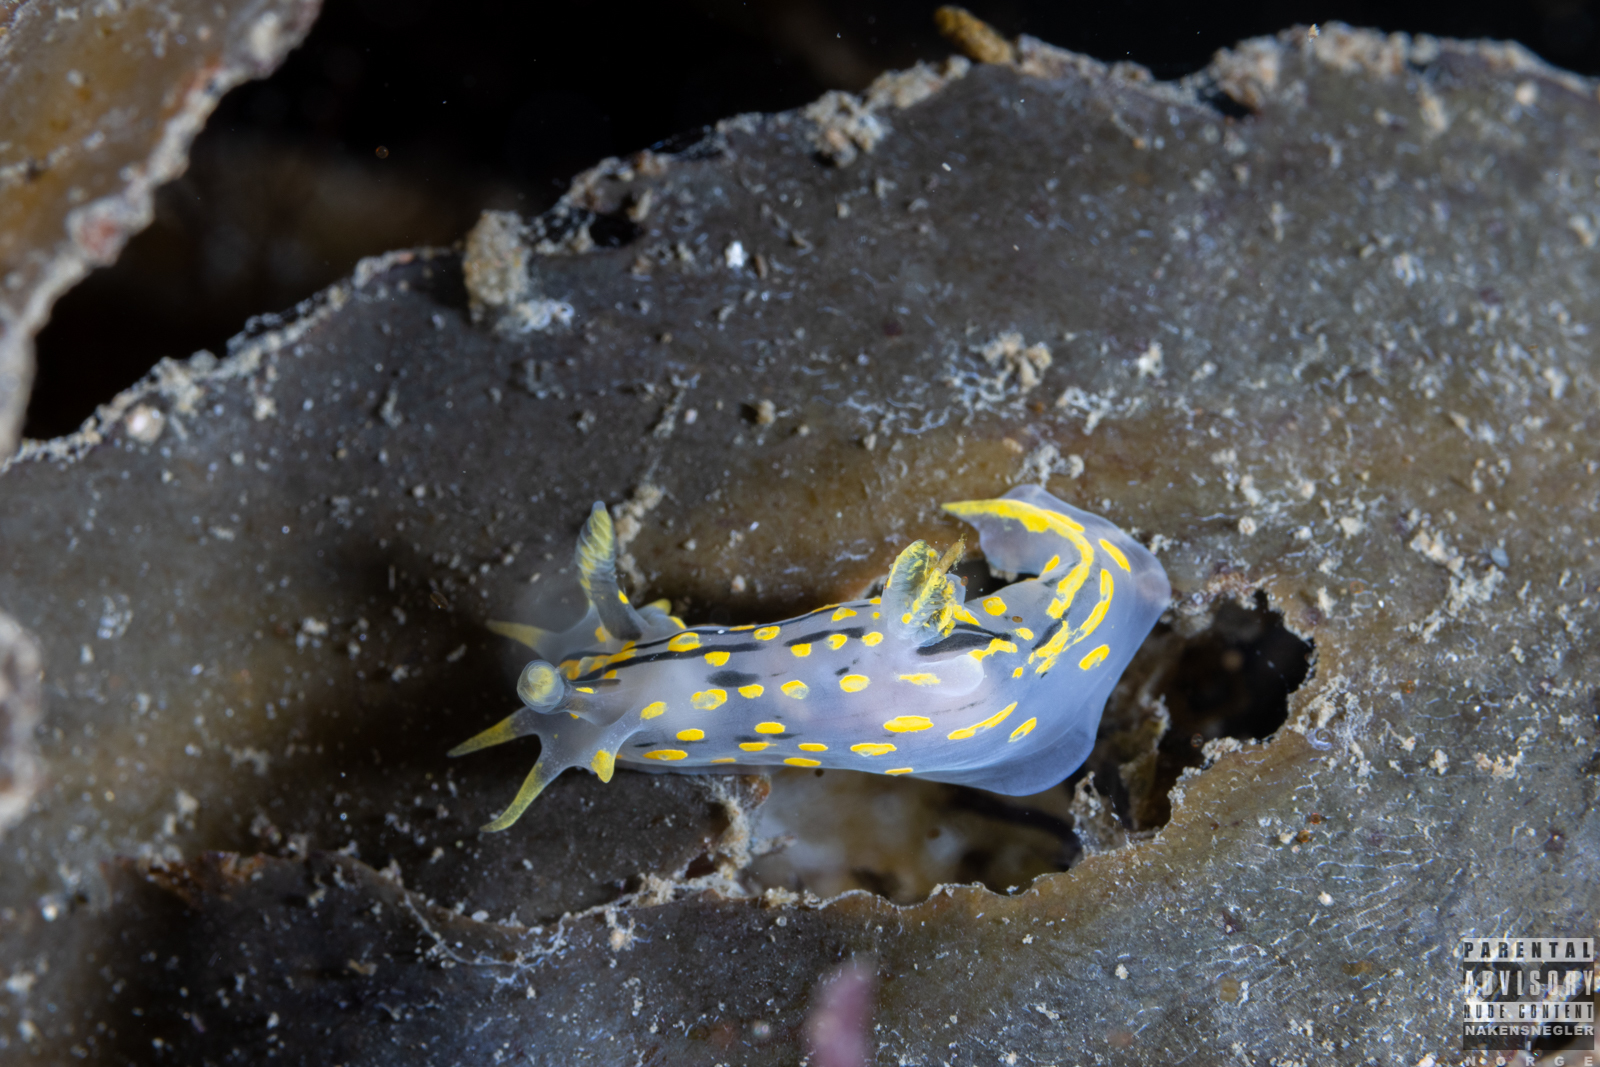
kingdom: Animalia
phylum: Mollusca
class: Gastropoda
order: Nudibranchia
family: Polyceridae
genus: Polycera
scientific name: Polycera quadrilineata
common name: Four-striped polycera
